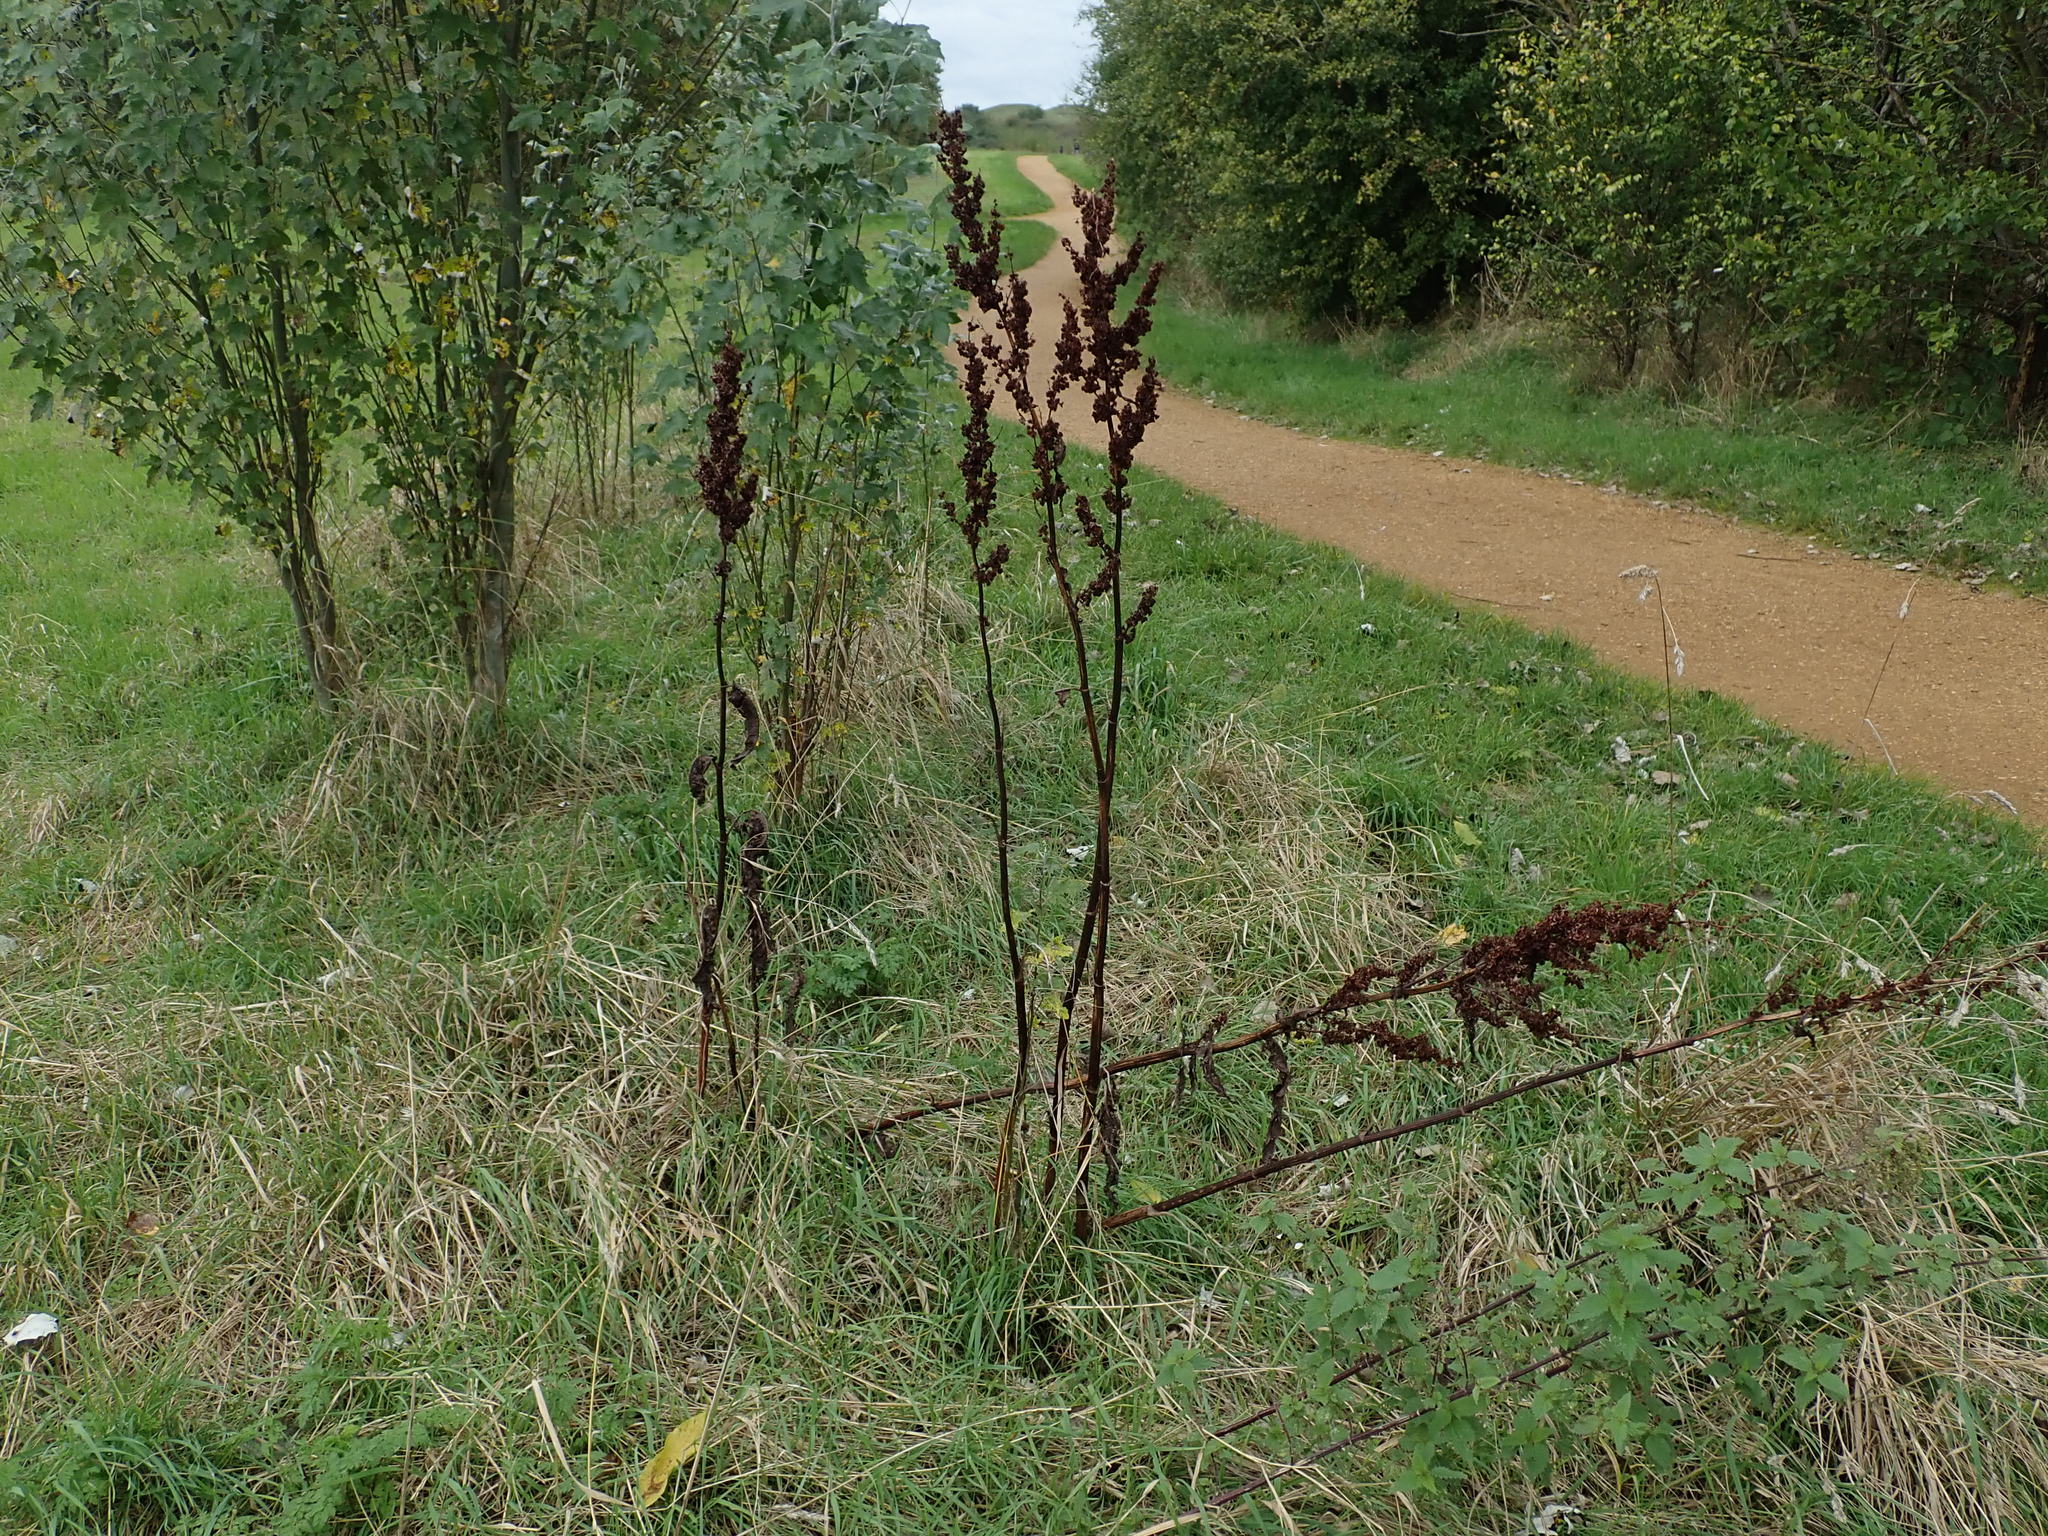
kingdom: Plantae
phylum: Tracheophyta
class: Magnoliopsida
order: Caryophyllales
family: Polygonaceae
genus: Rumex
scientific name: Rumex cristatus
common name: Greek dock
